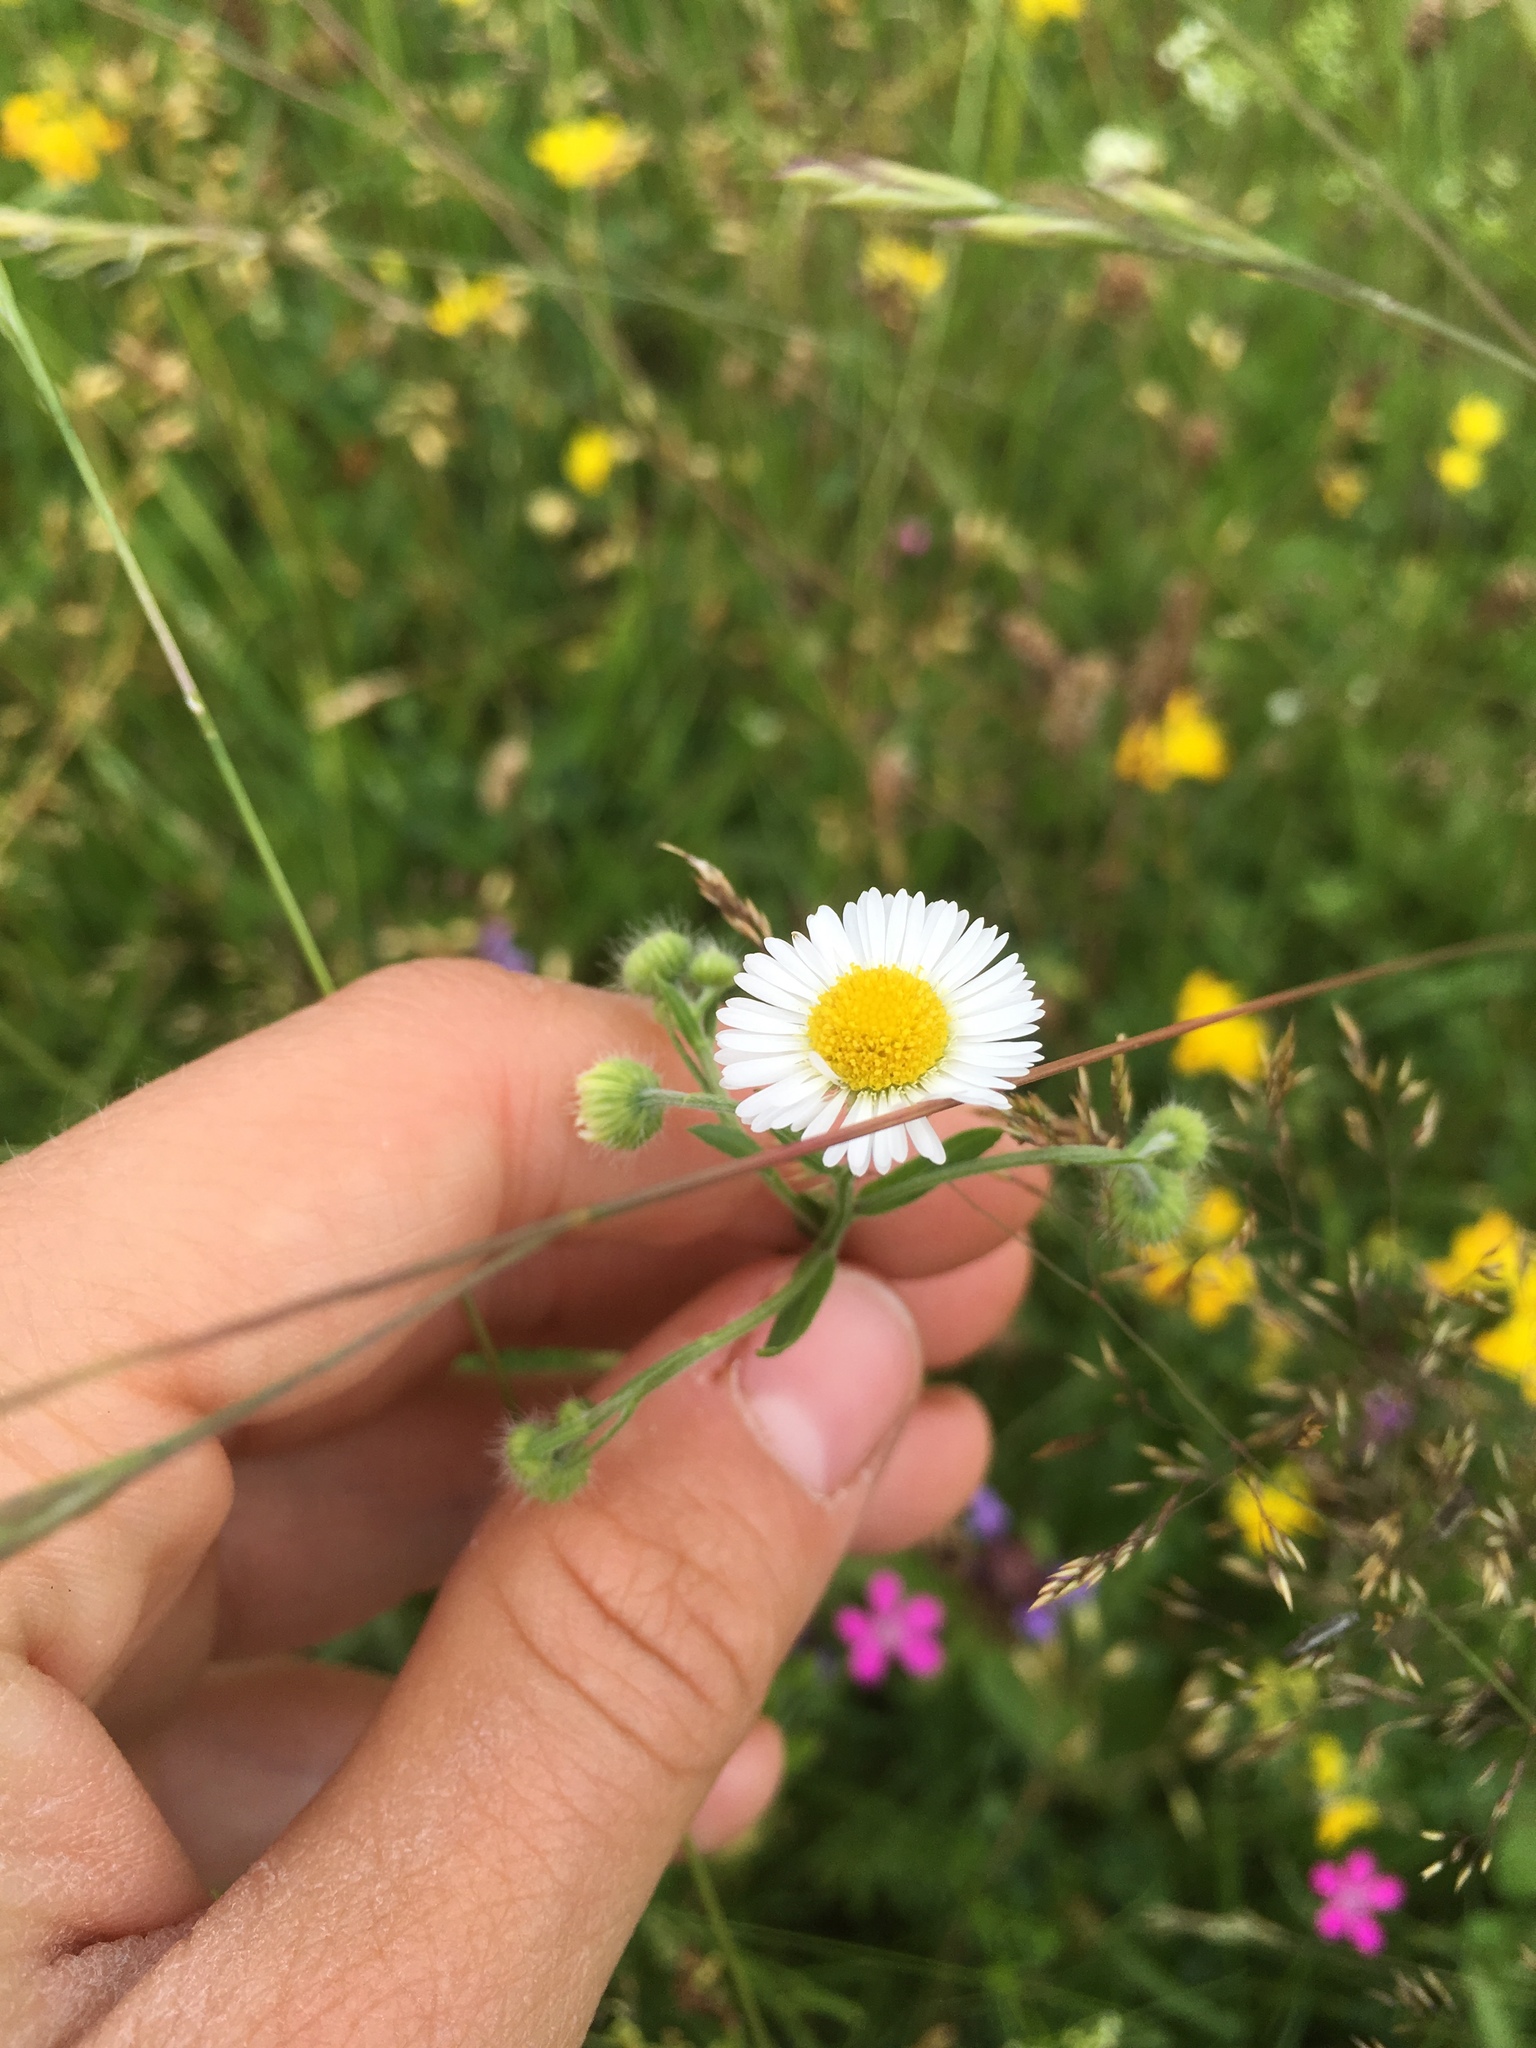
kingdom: Plantae
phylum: Tracheophyta
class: Magnoliopsida
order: Asterales
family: Asteraceae
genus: Erigeron
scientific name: Erigeron annuus
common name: Tall fleabane
